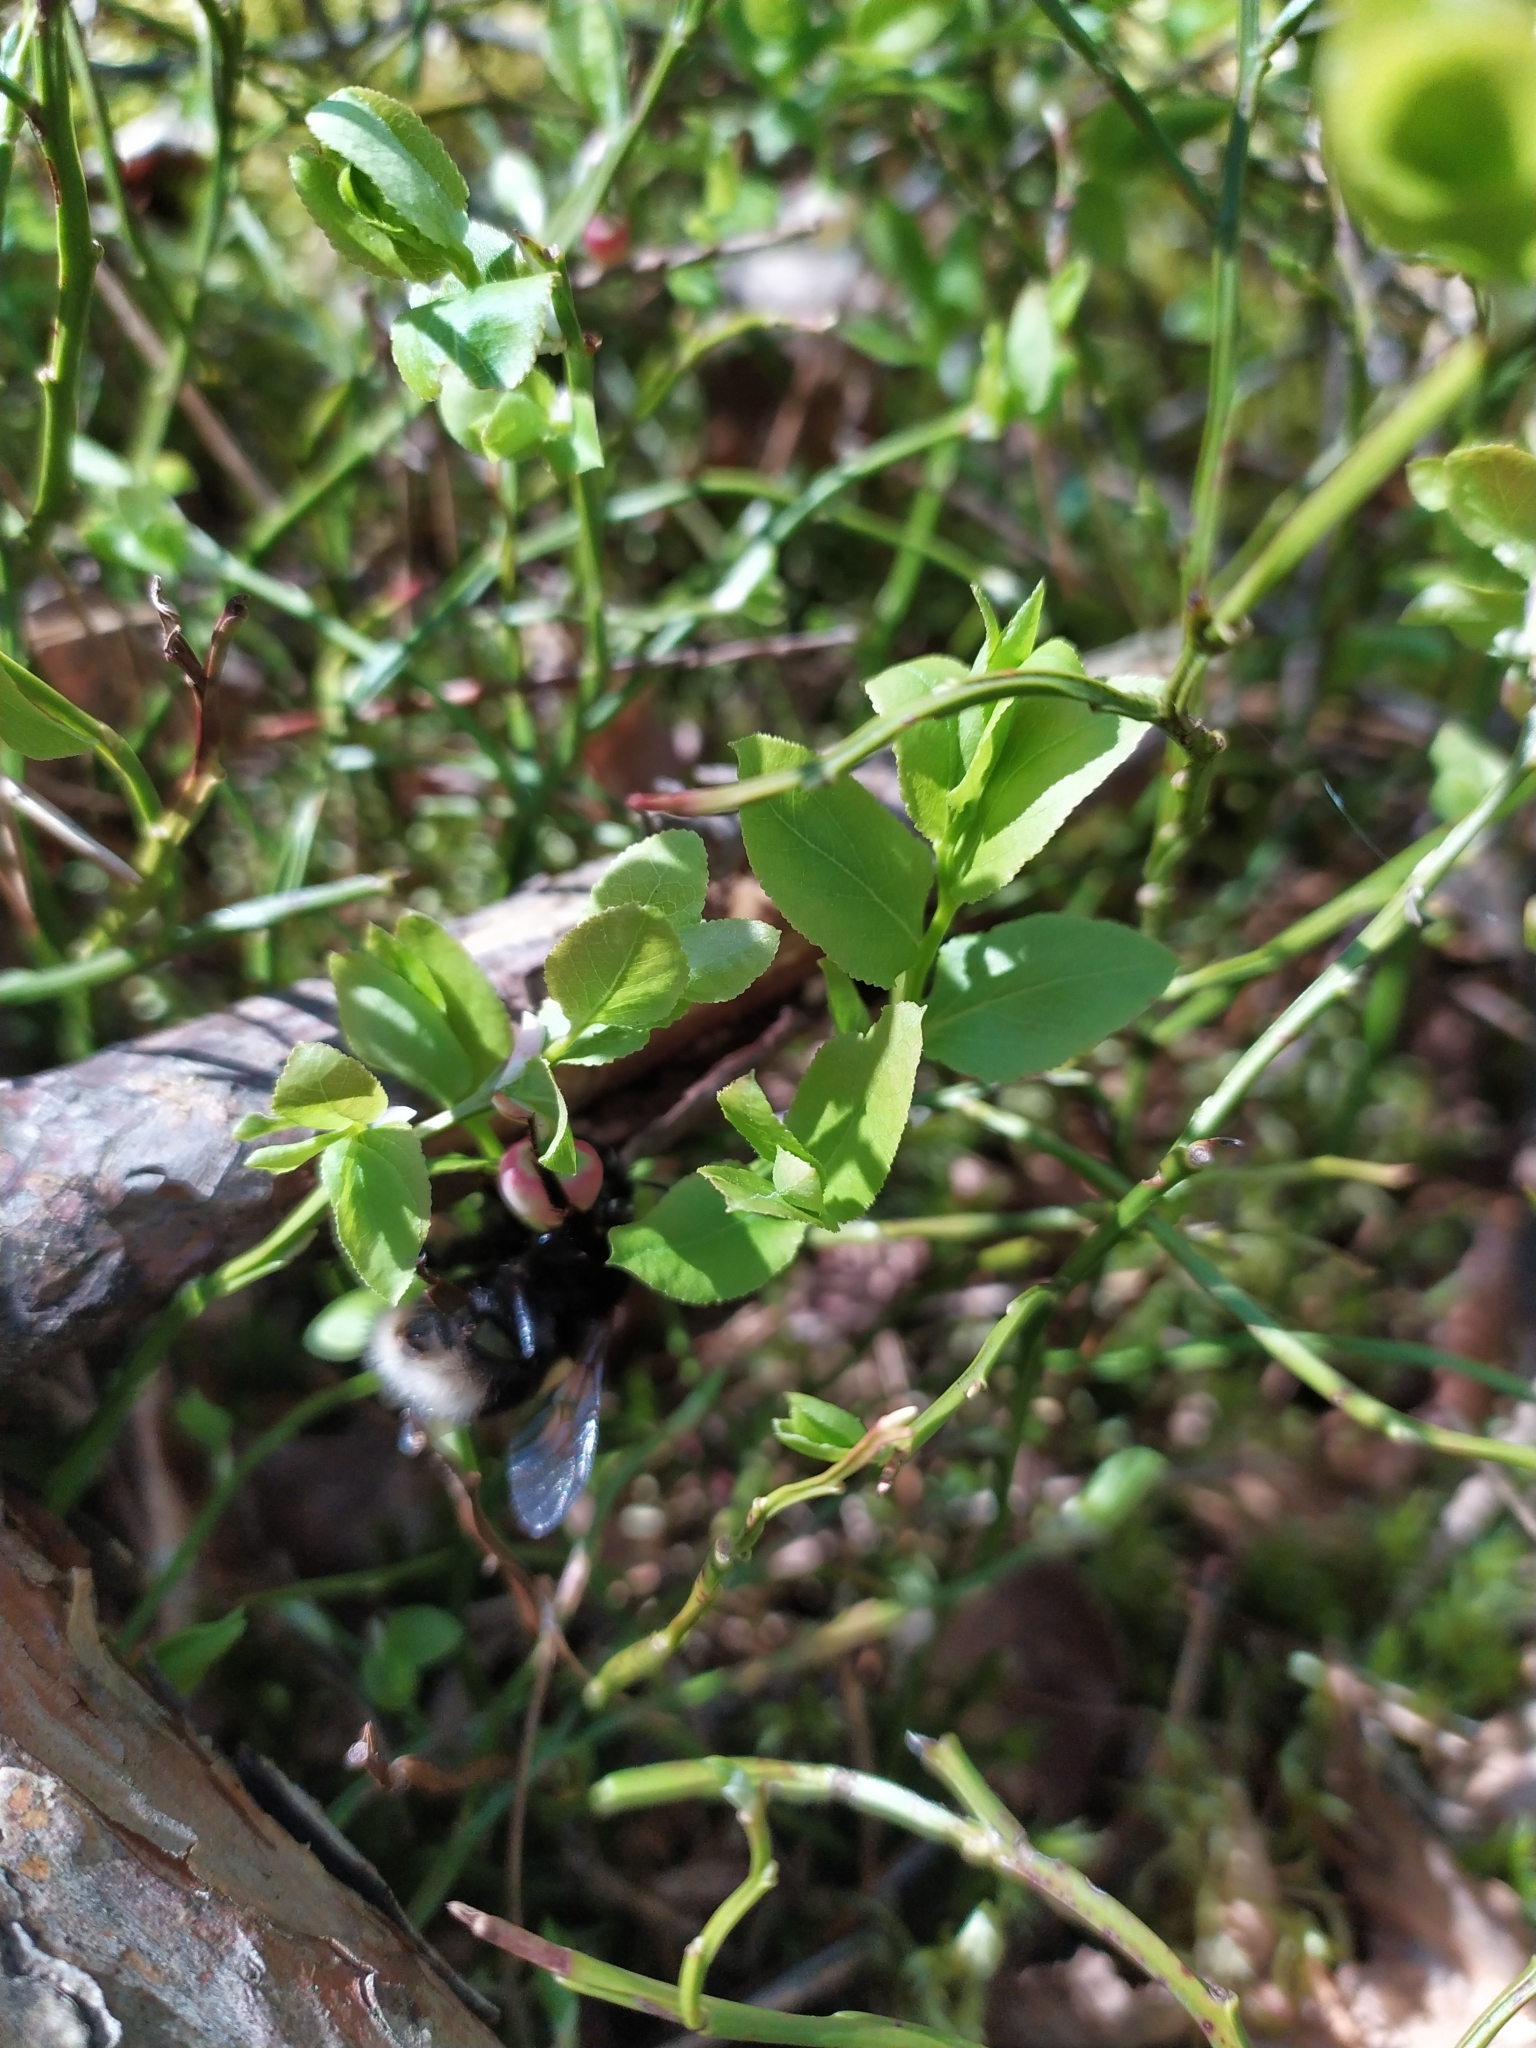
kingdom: Animalia
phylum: Arthropoda
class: Insecta
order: Hymenoptera
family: Apidae
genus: Bombus
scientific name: Bombus
